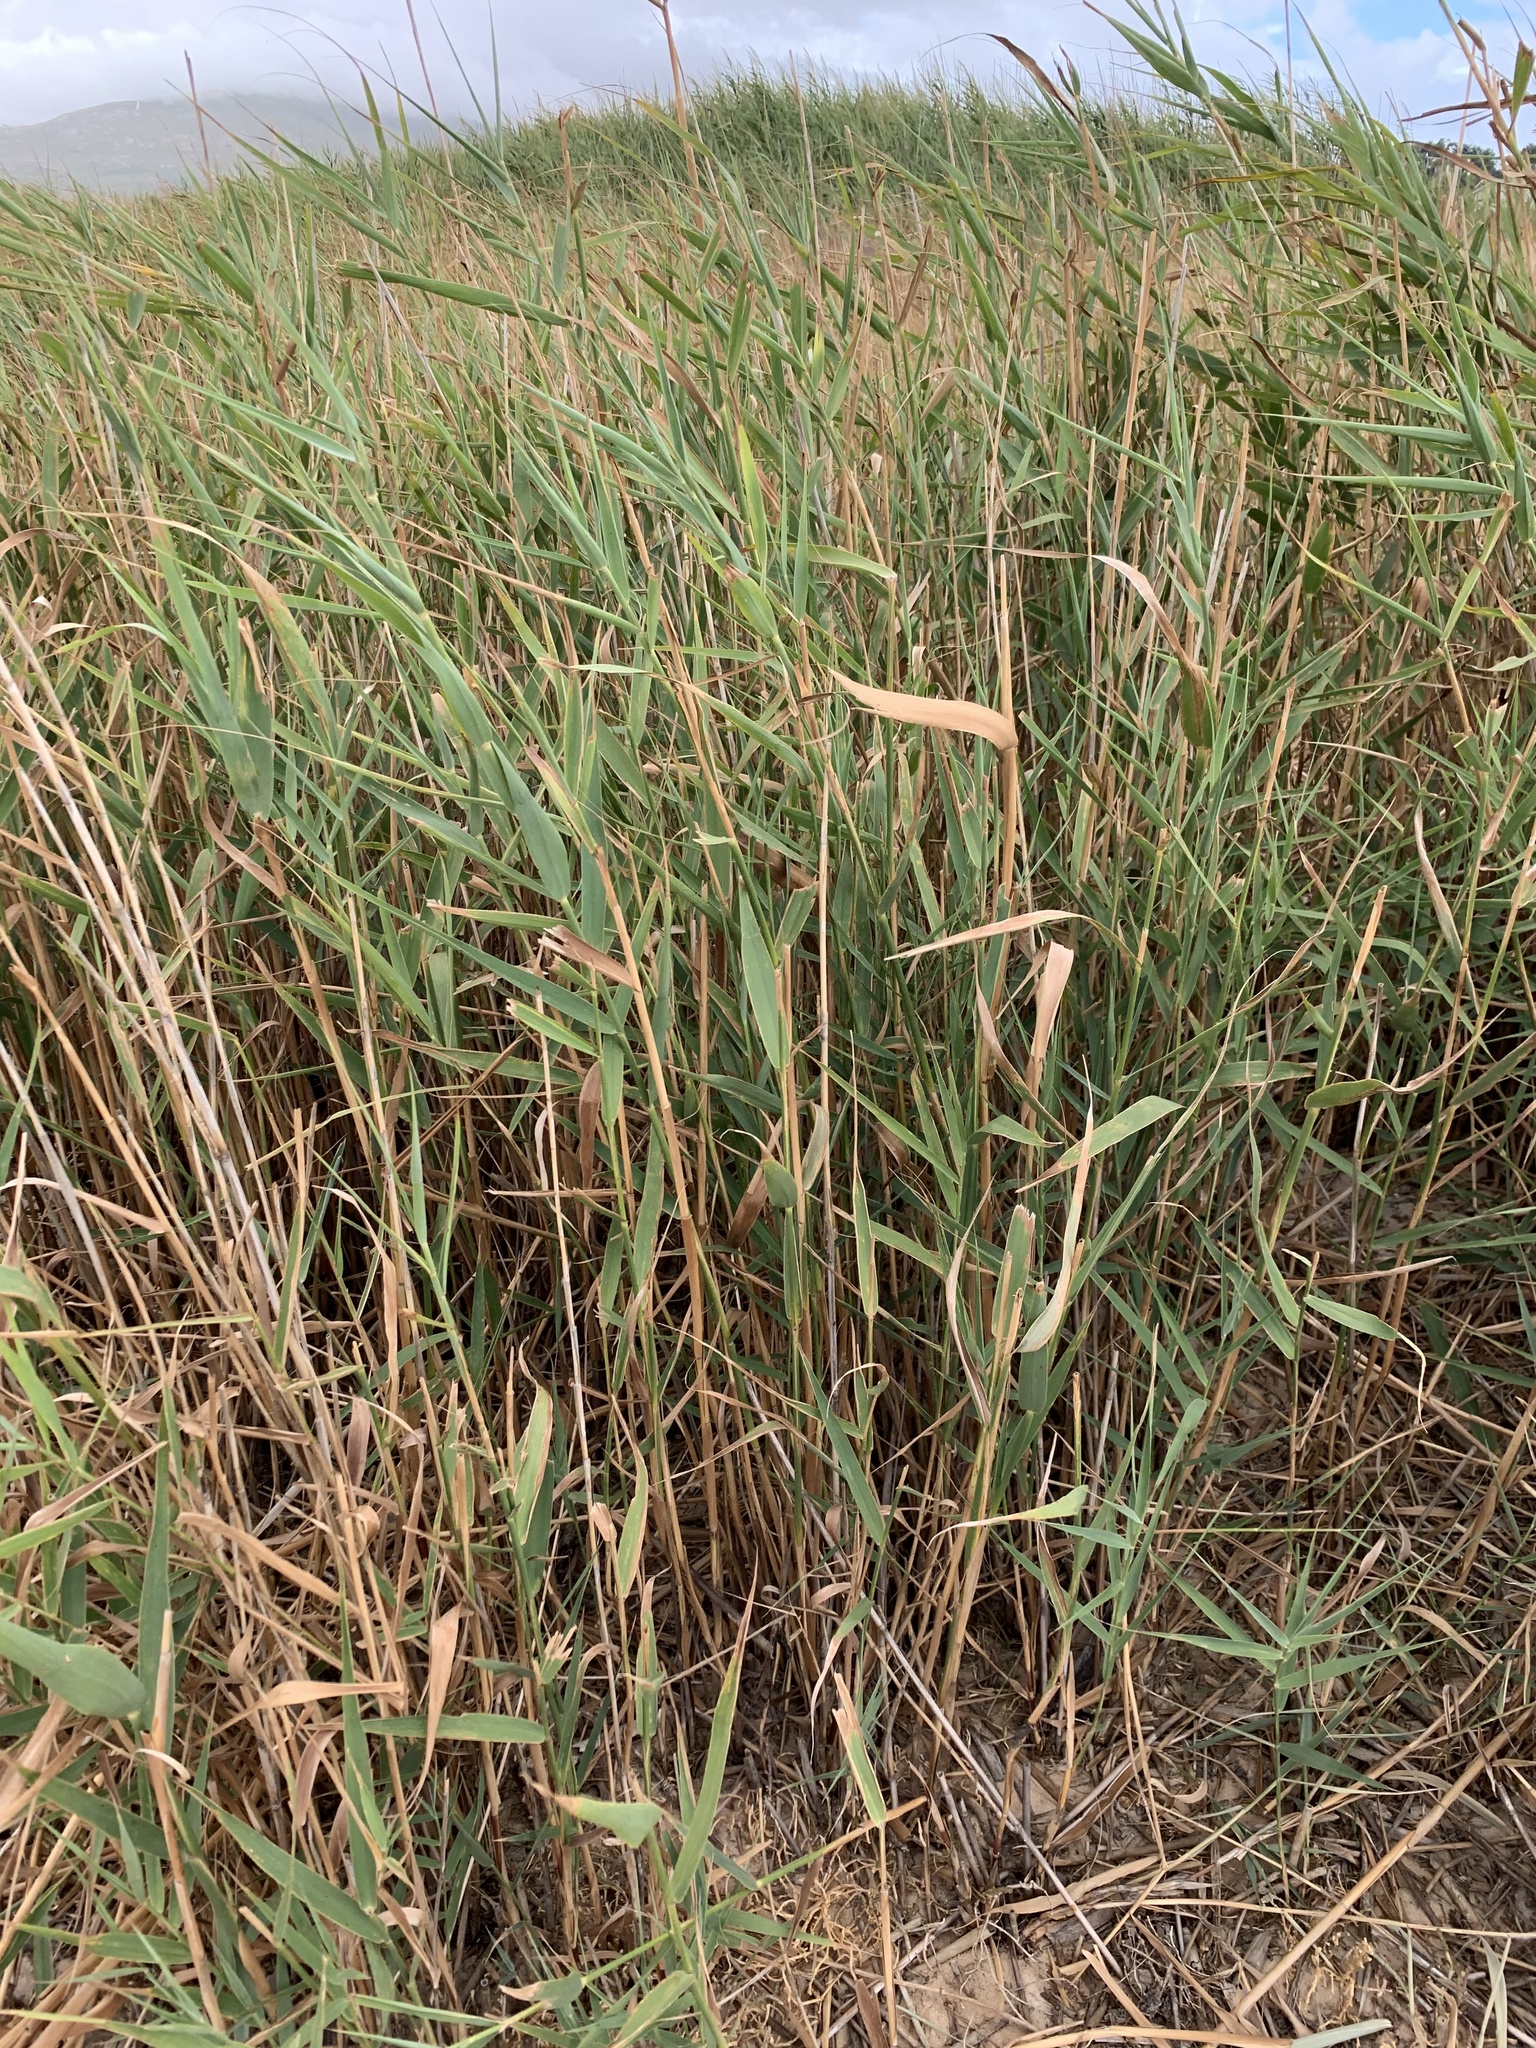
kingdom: Plantae
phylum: Tracheophyta
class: Liliopsida
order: Poales
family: Poaceae
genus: Phragmites
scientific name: Phragmites australis
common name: Common reed
